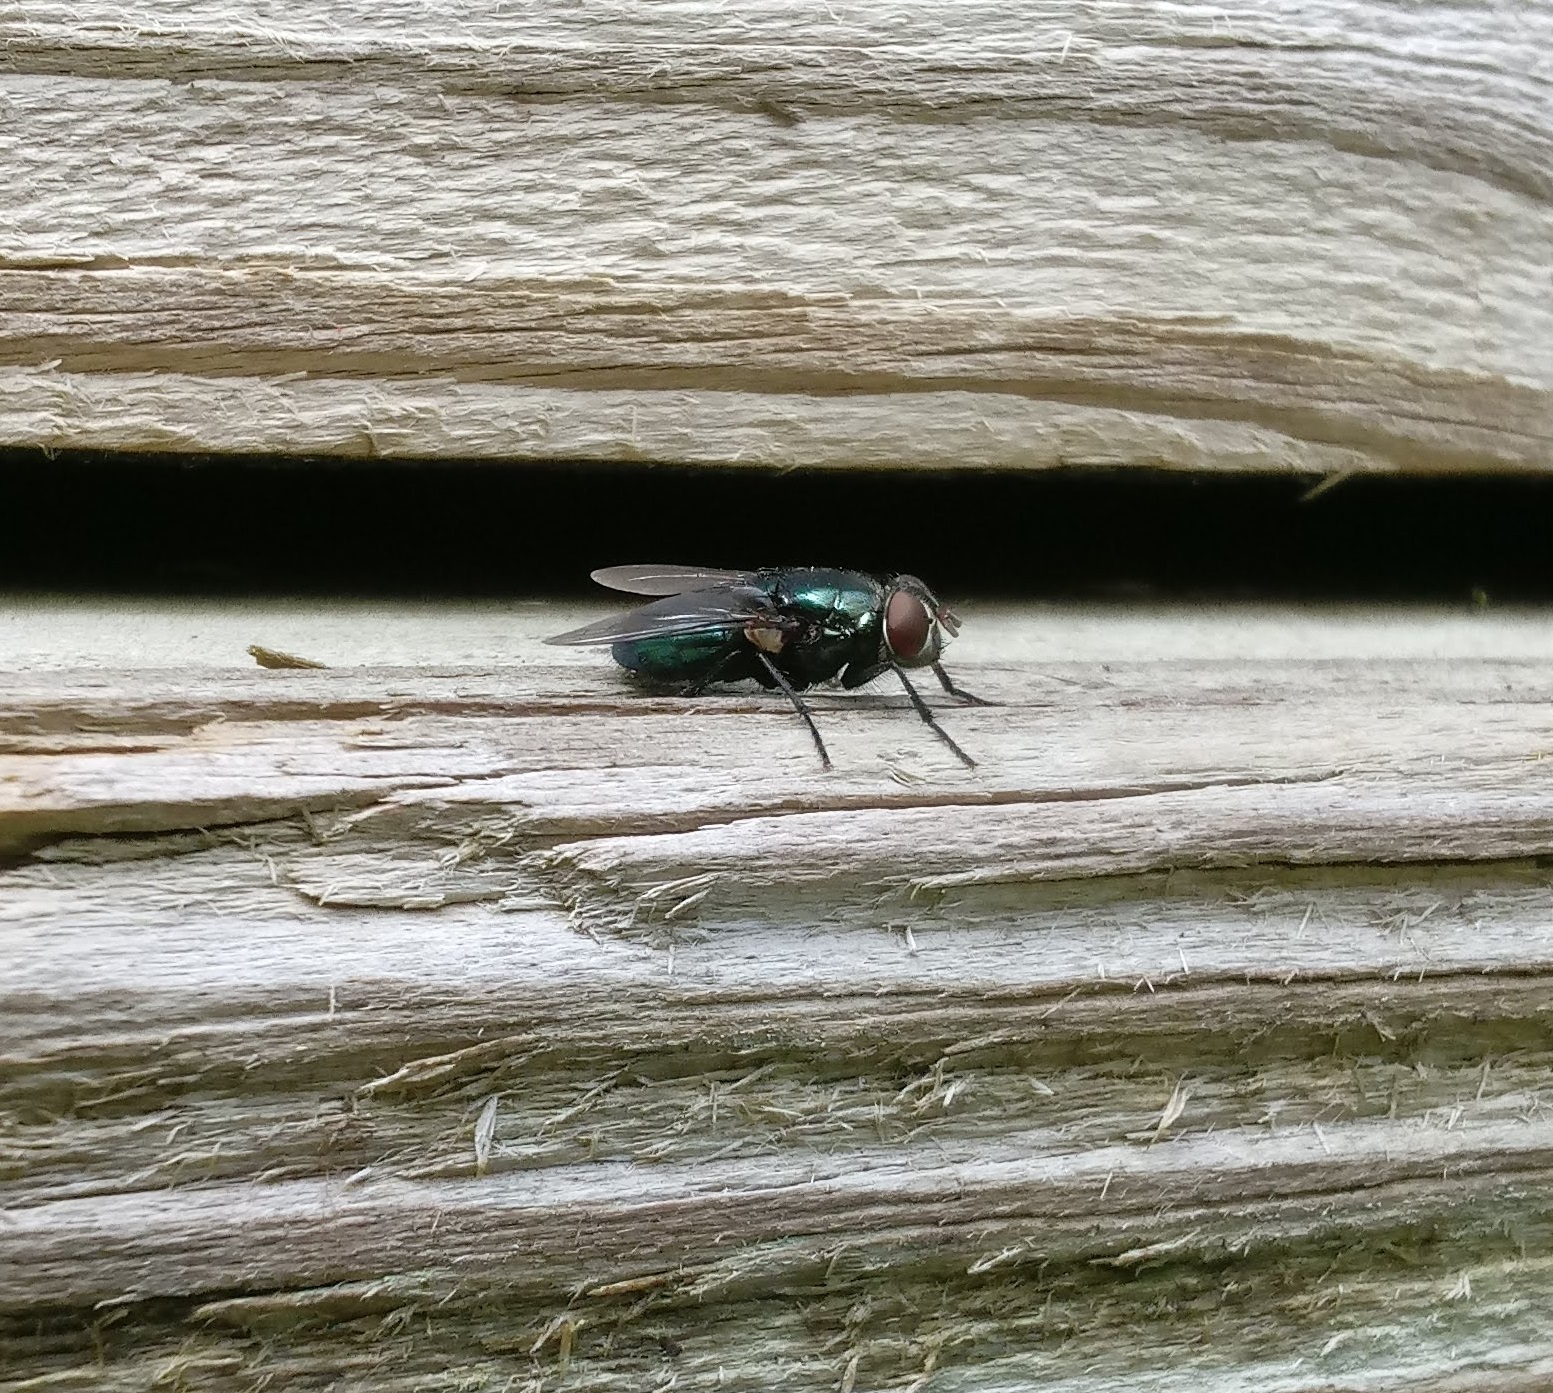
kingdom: Animalia
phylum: Arthropoda
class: Insecta
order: Diptera
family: Calliphoridae
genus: Phormia
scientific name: Phormia regina
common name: Black blow fly
